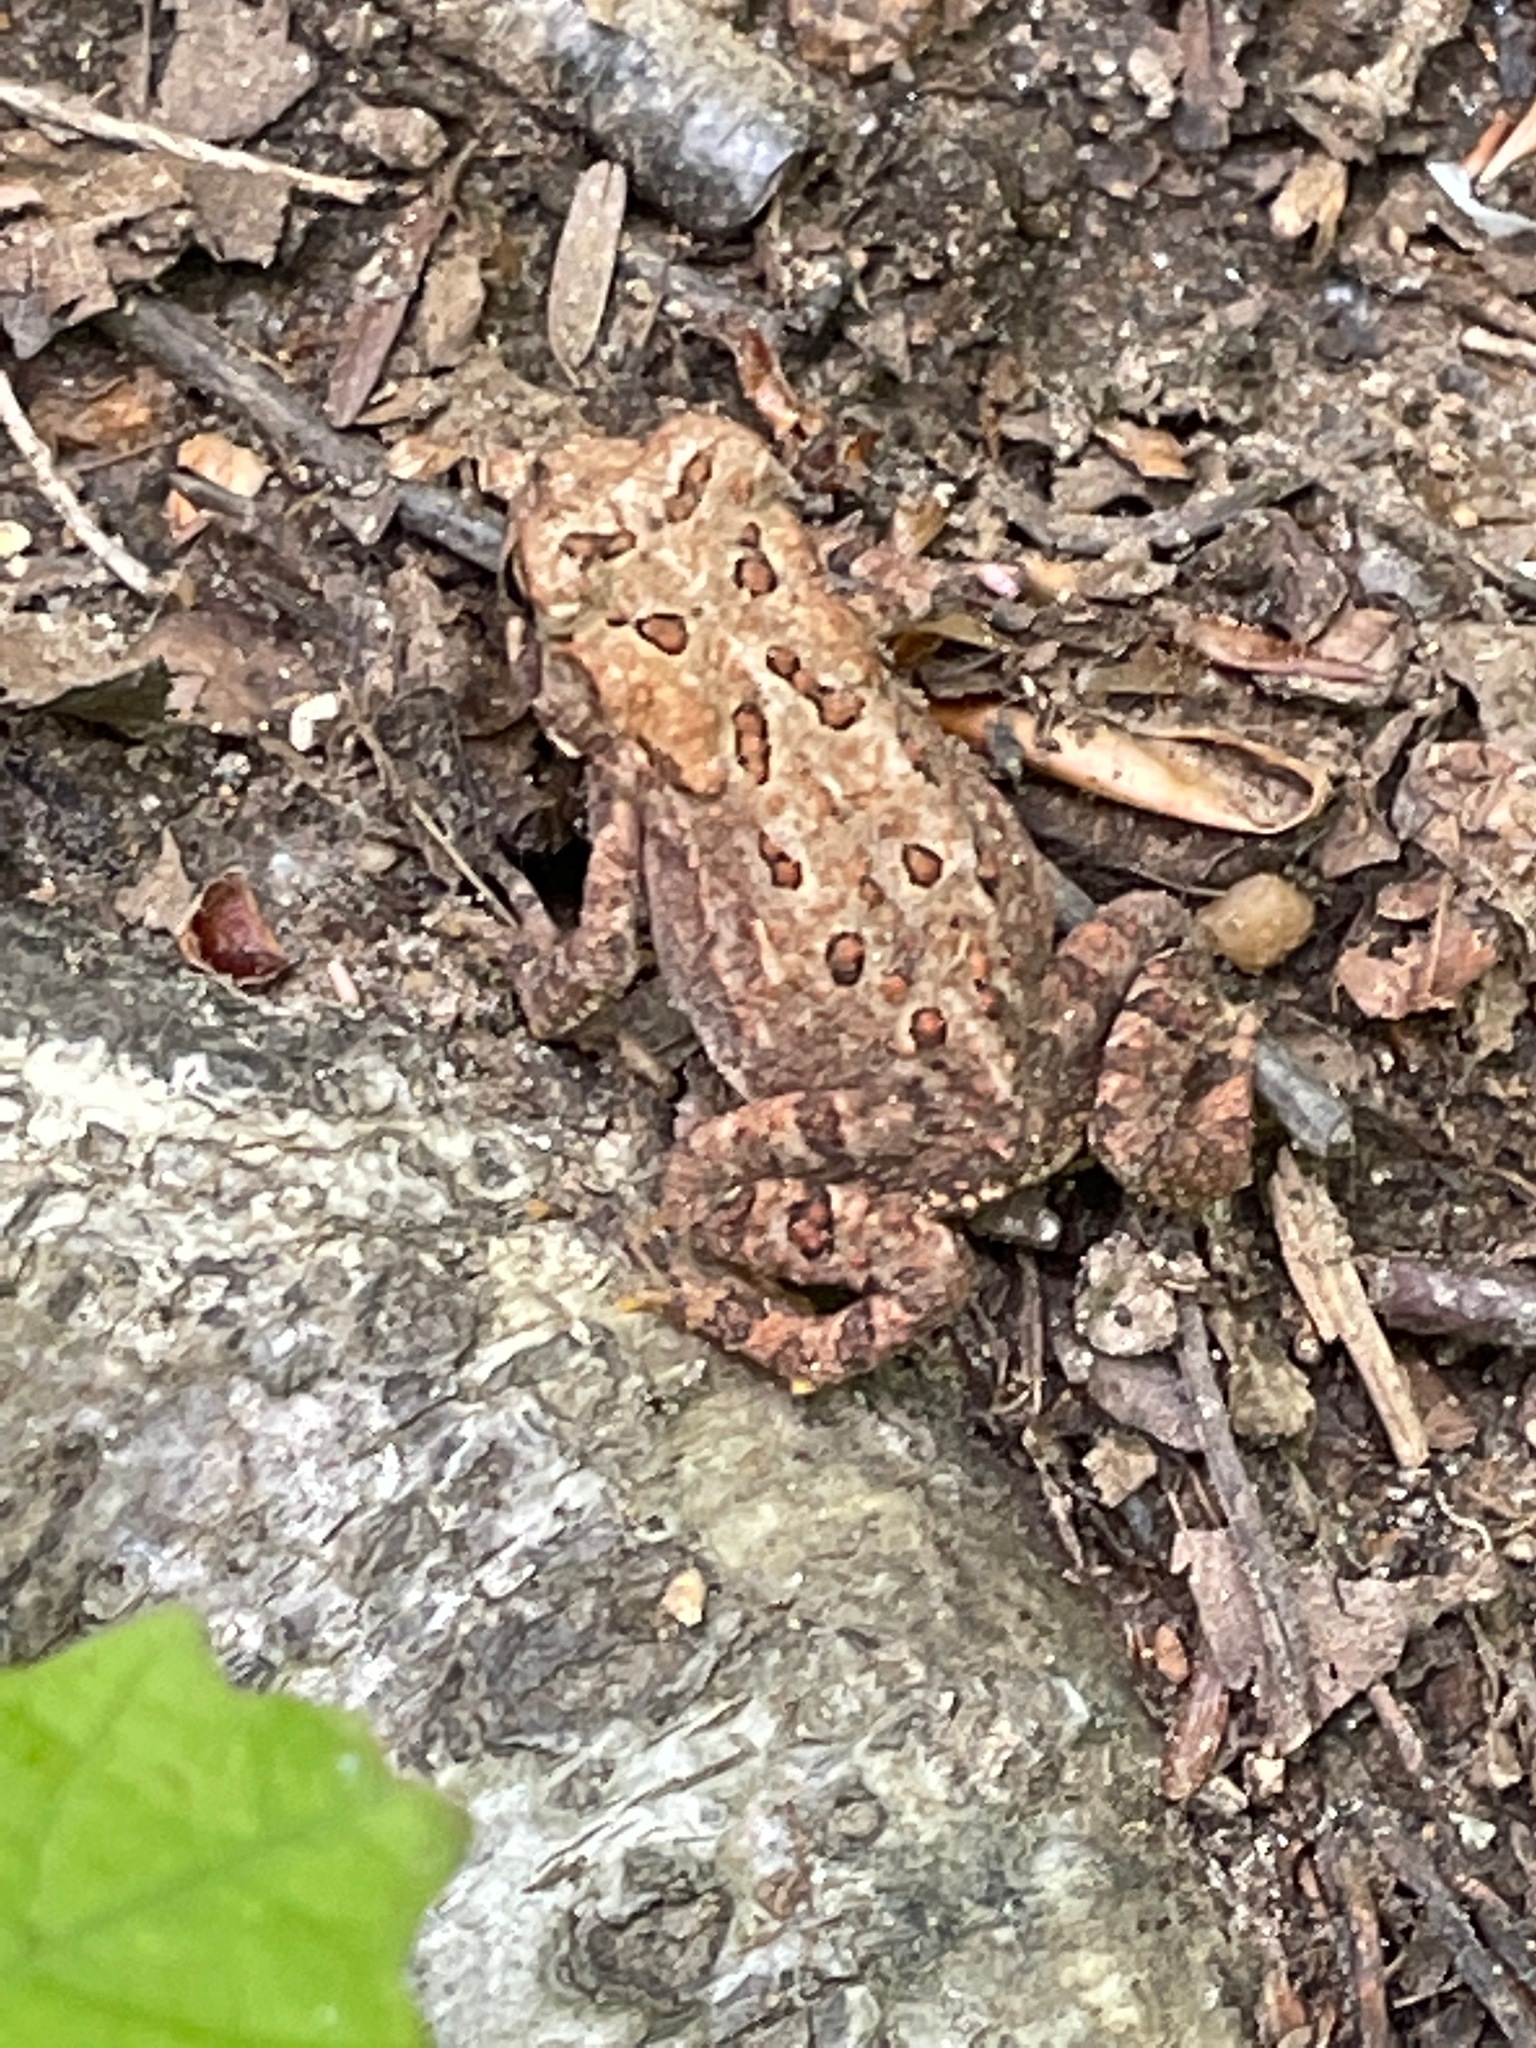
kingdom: Animalia
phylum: Chordata
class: Amphibia
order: Anura
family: Bufonidae
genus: Anaxyrus
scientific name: Anaxyrus americanus
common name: American toad
